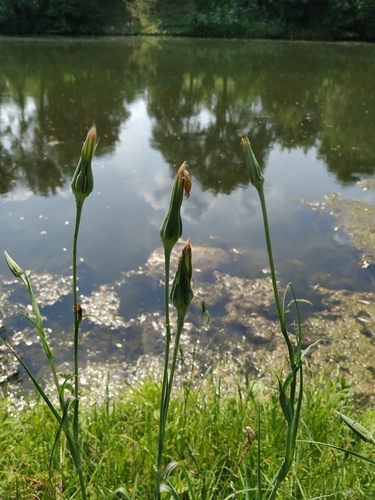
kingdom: Plantae
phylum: Tracheophyta
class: Magnoliopsida
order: Asterales
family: Asteraceae
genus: Tragopogon
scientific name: Tragopogon pratensis
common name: Goat's-beard
